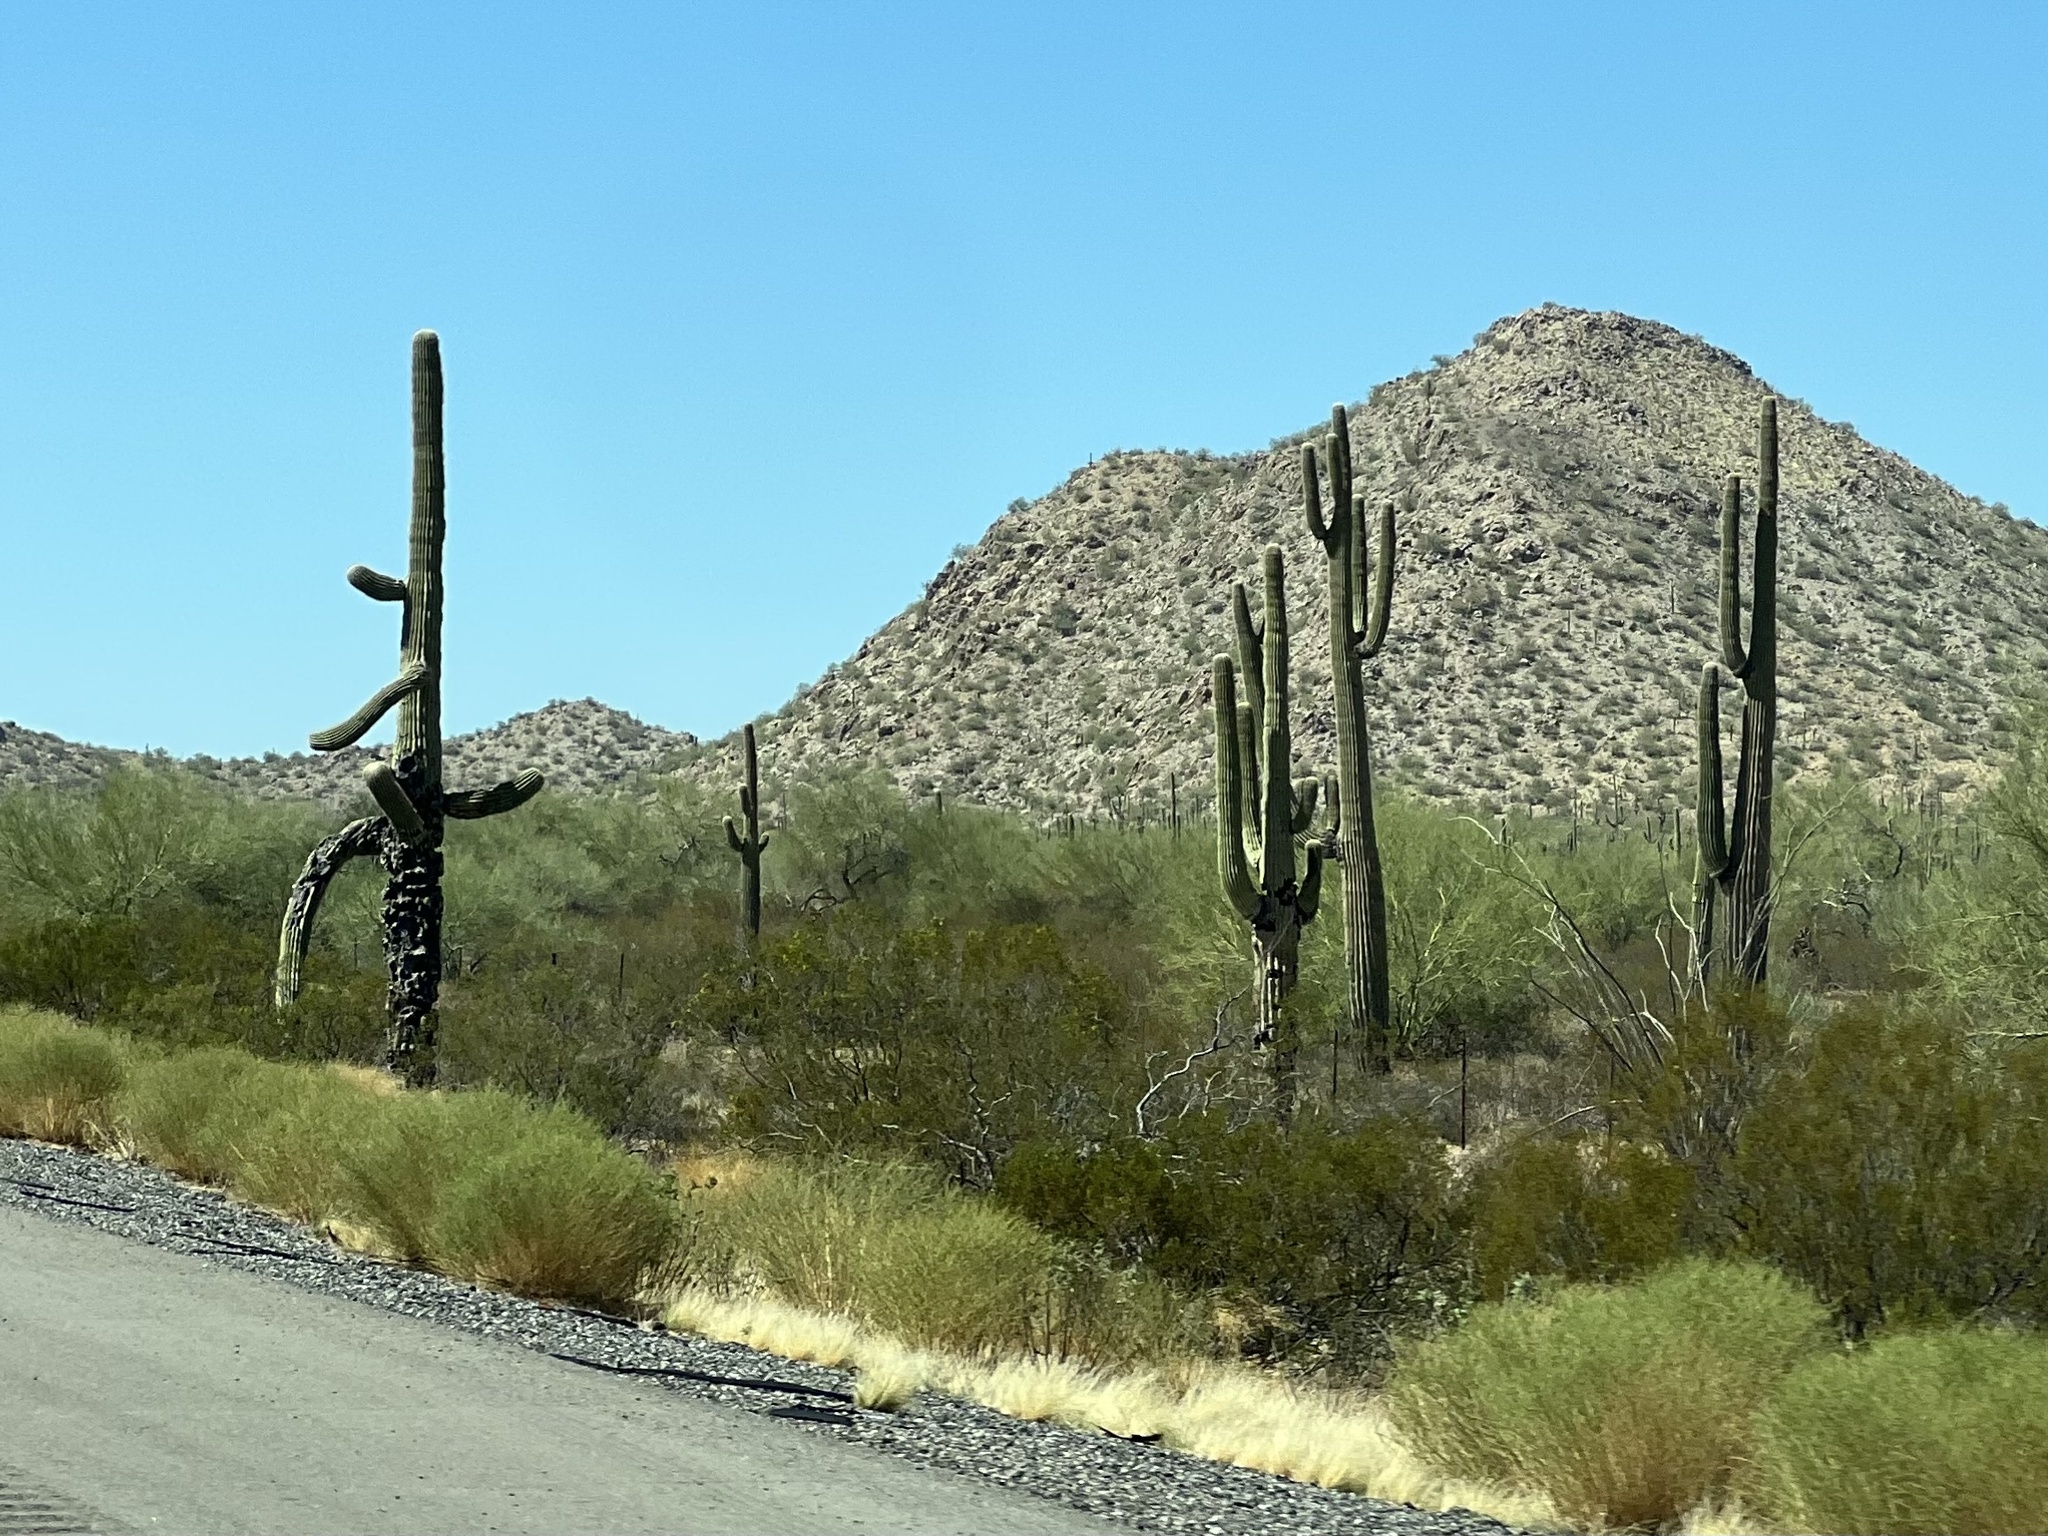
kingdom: Plantae
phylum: Tracheophyta
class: Magnoliopsida
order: Caryophyllales
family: Cactaceae
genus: Carnegiea
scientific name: Carnegiea gigantea
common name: Saguaro
